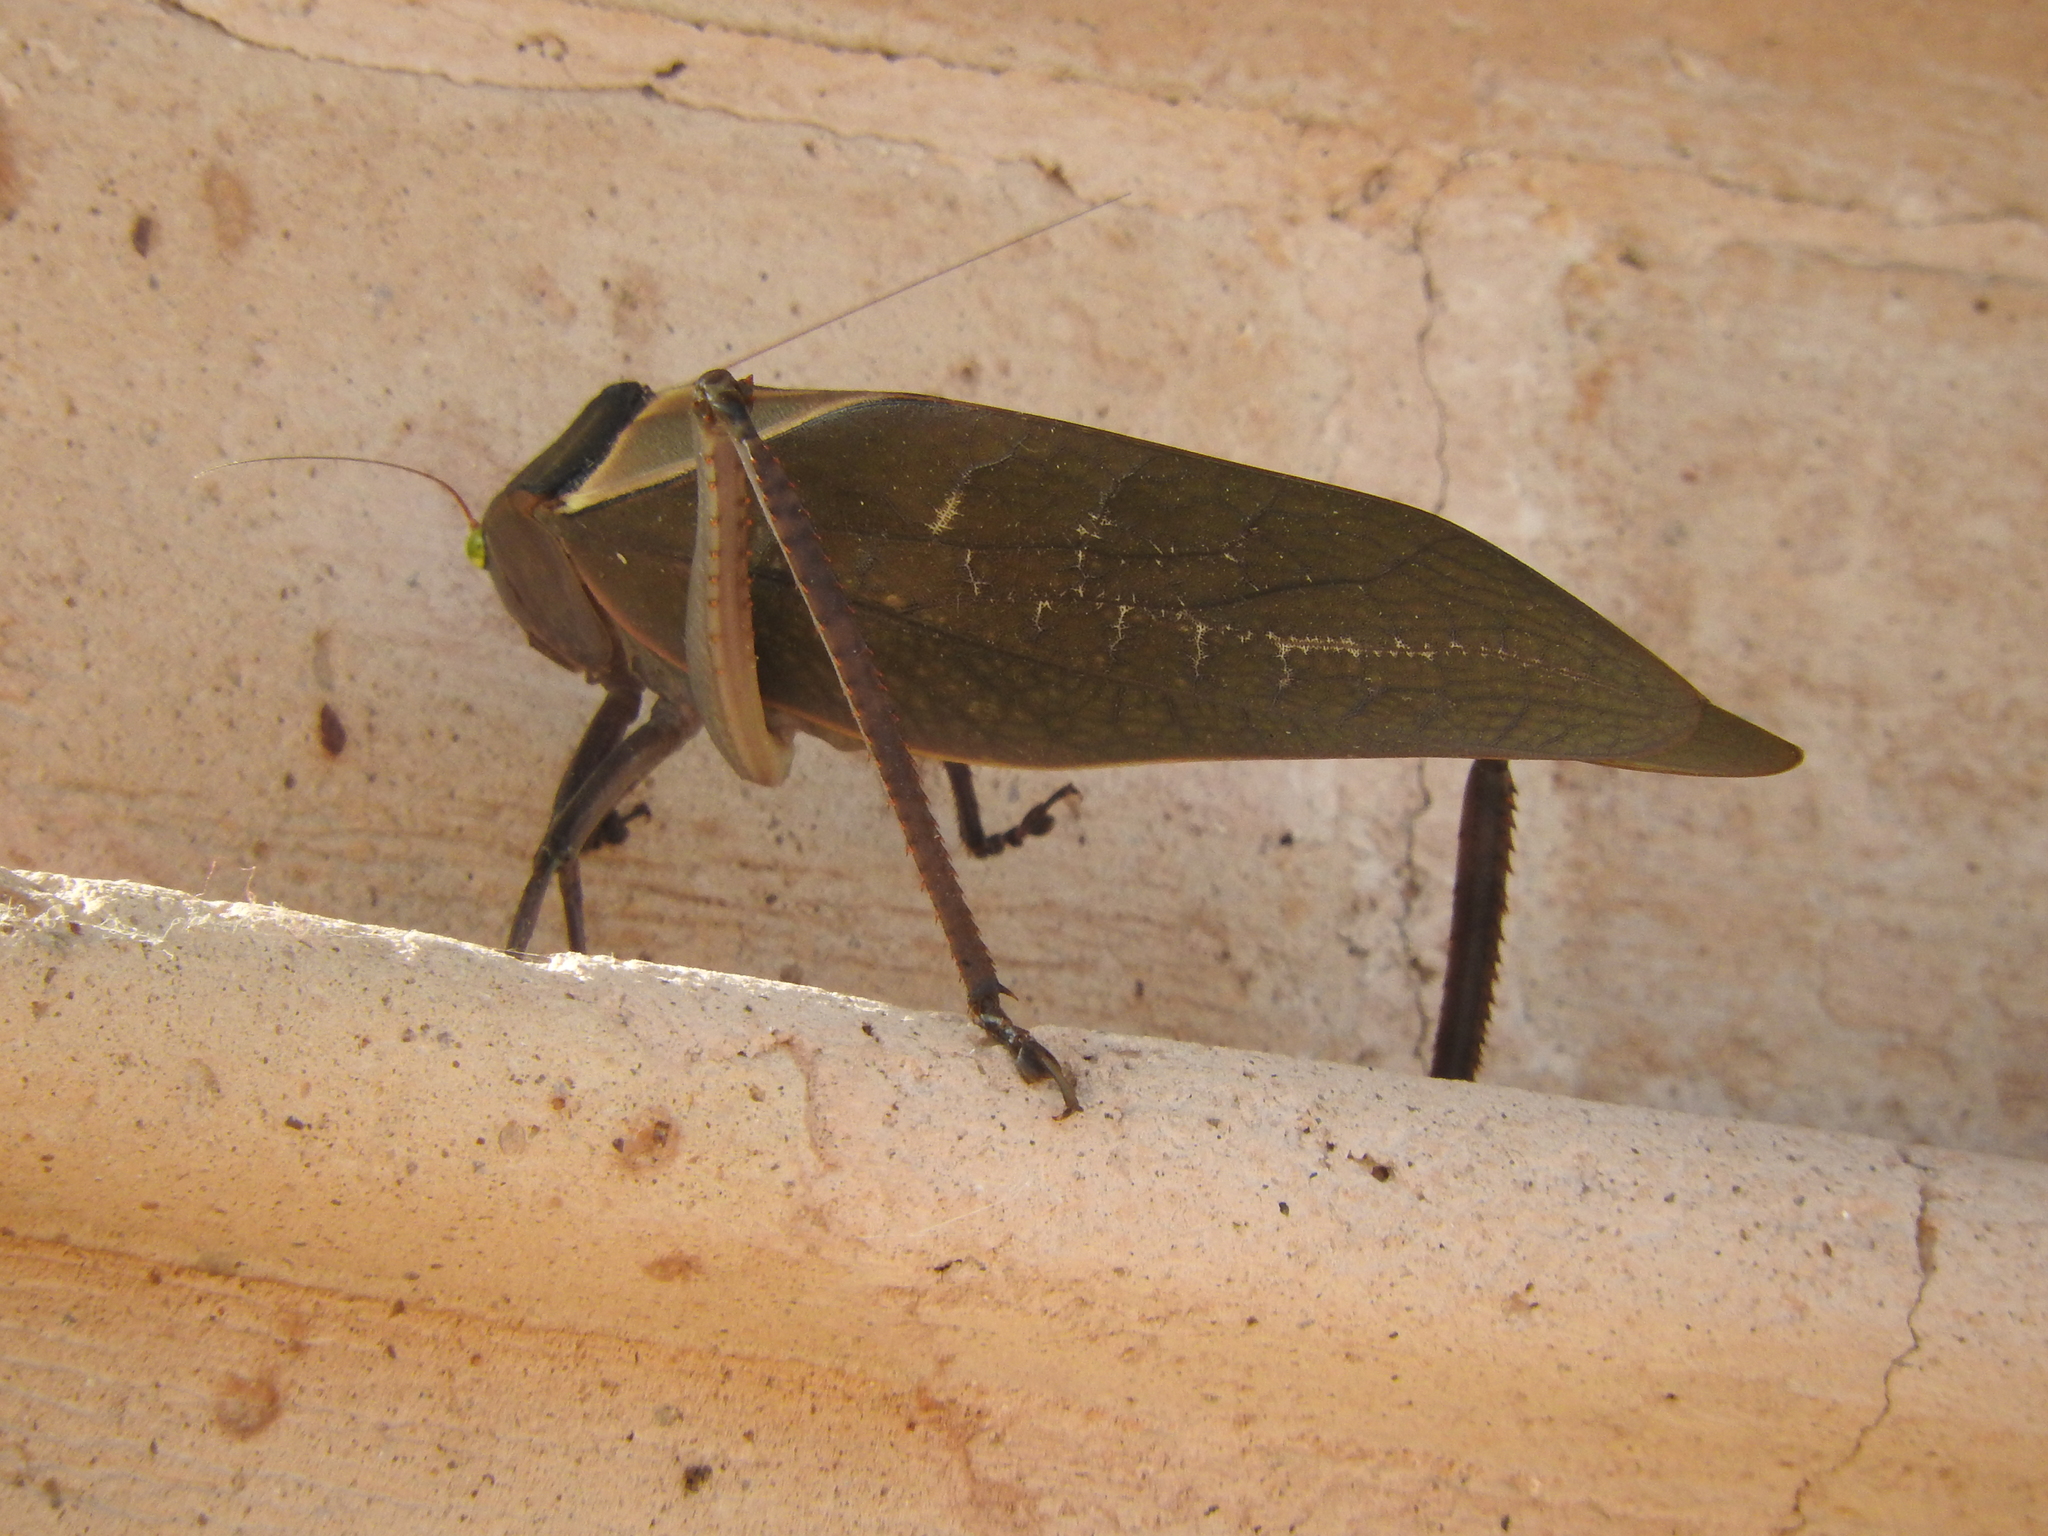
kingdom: Animalia
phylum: Arthropoda
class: Insecta
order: Orthoptera
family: Tettigoniidae
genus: Stilpnochlora
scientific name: Stilpnochlora azteca
